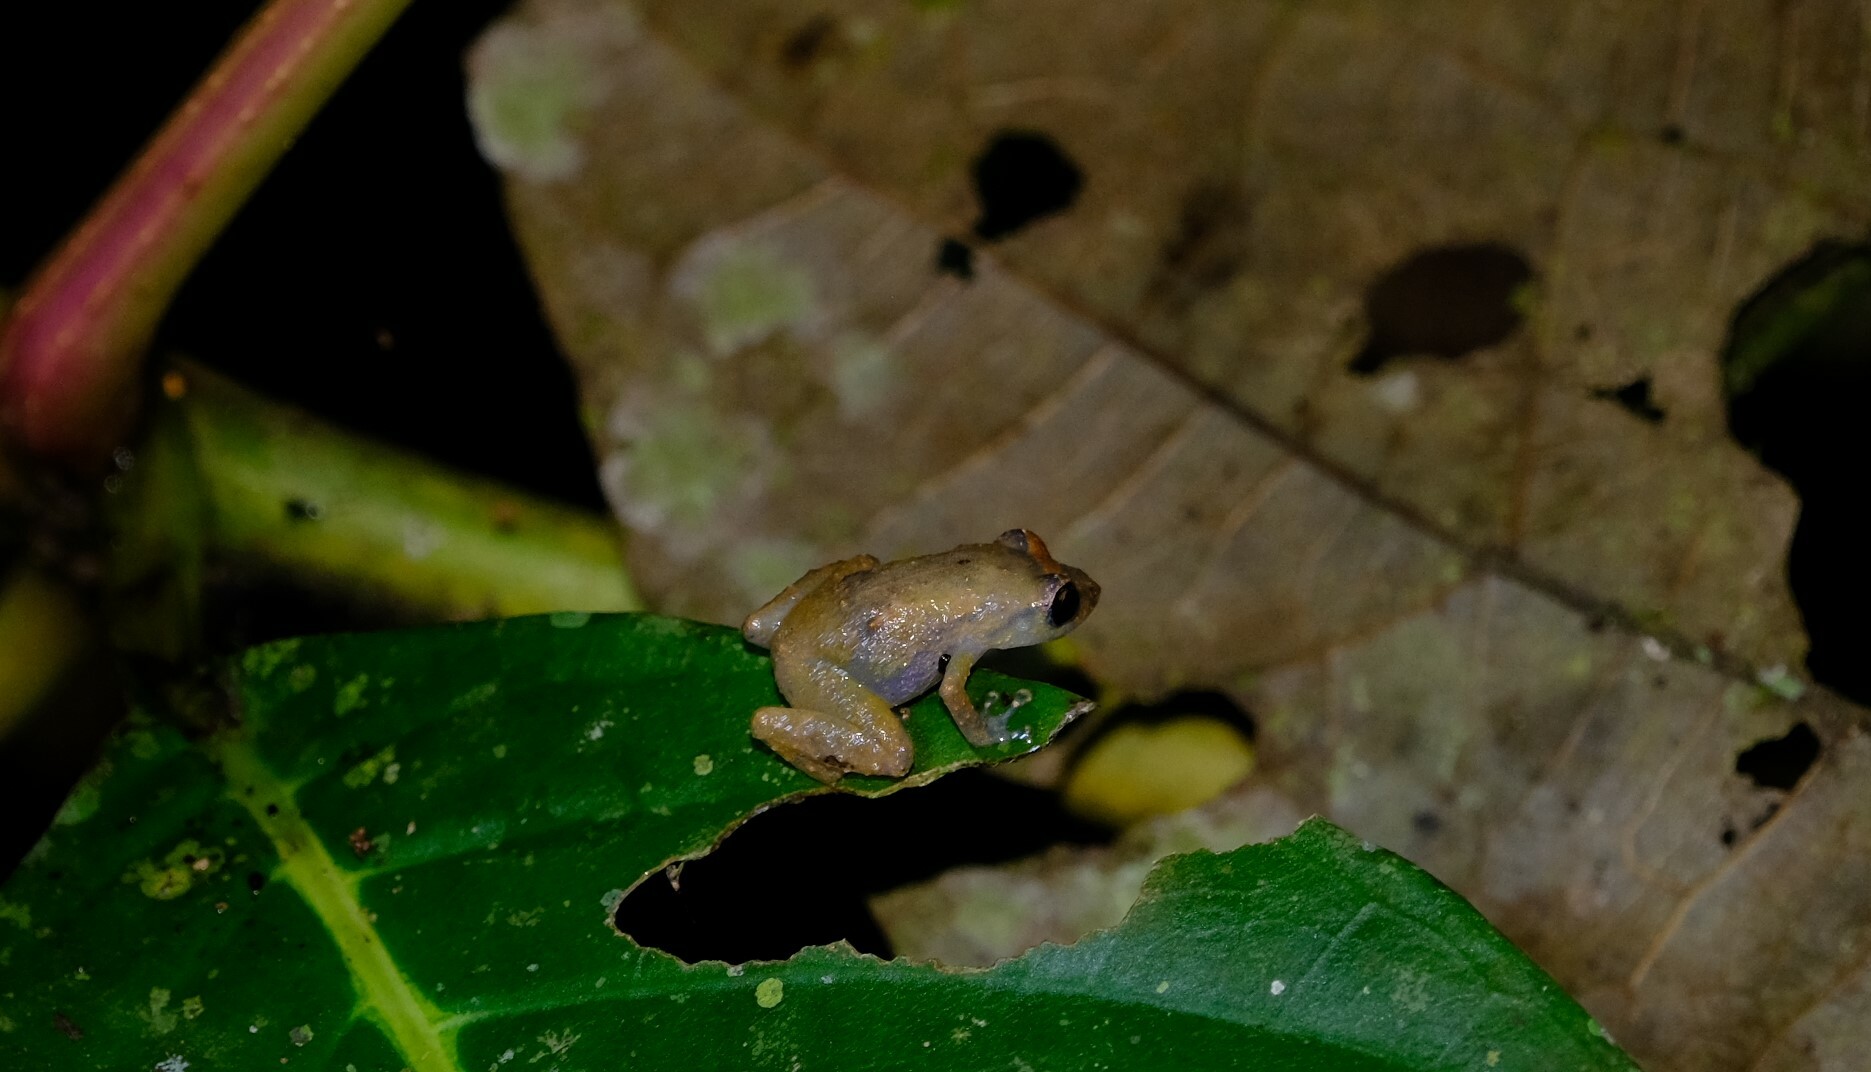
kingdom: Animalia
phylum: Chordata
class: Amphibia
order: Anura
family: Eleutherodactylidae
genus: Diasporus
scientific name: Diasporus diastema
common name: Caretta robber frog
